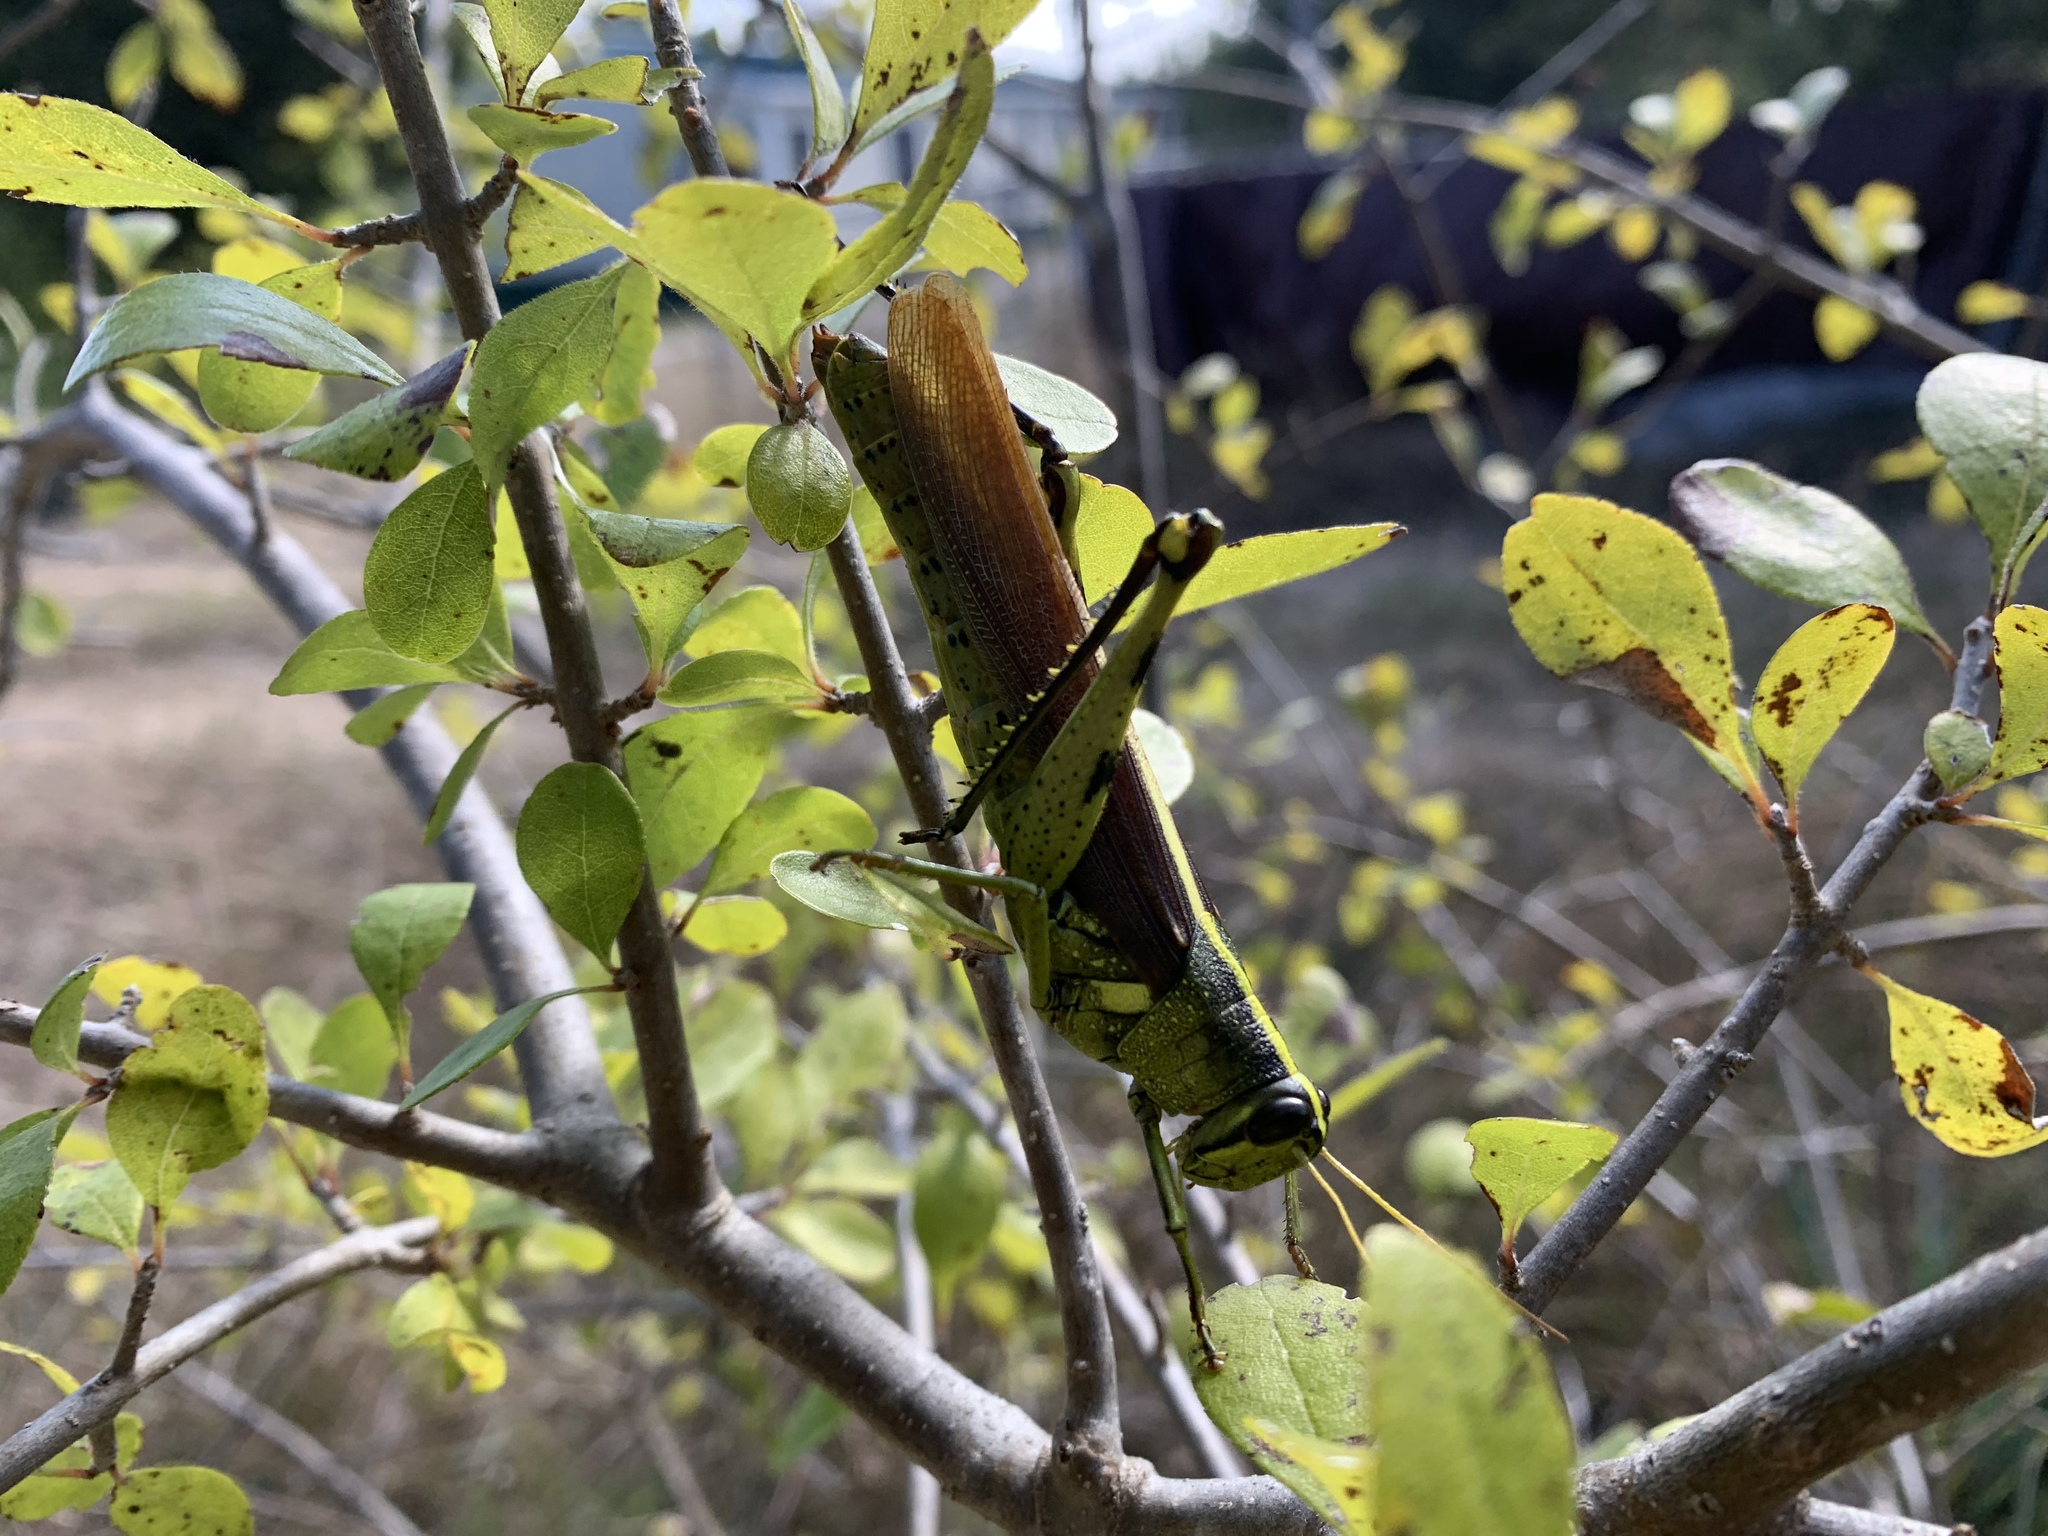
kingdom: Animalia
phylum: Arthropoda
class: Insecta
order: Orthoptera
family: Acrididae
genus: Schistocerca
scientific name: Schistocerca obscura
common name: Obscure bird grasshopper
